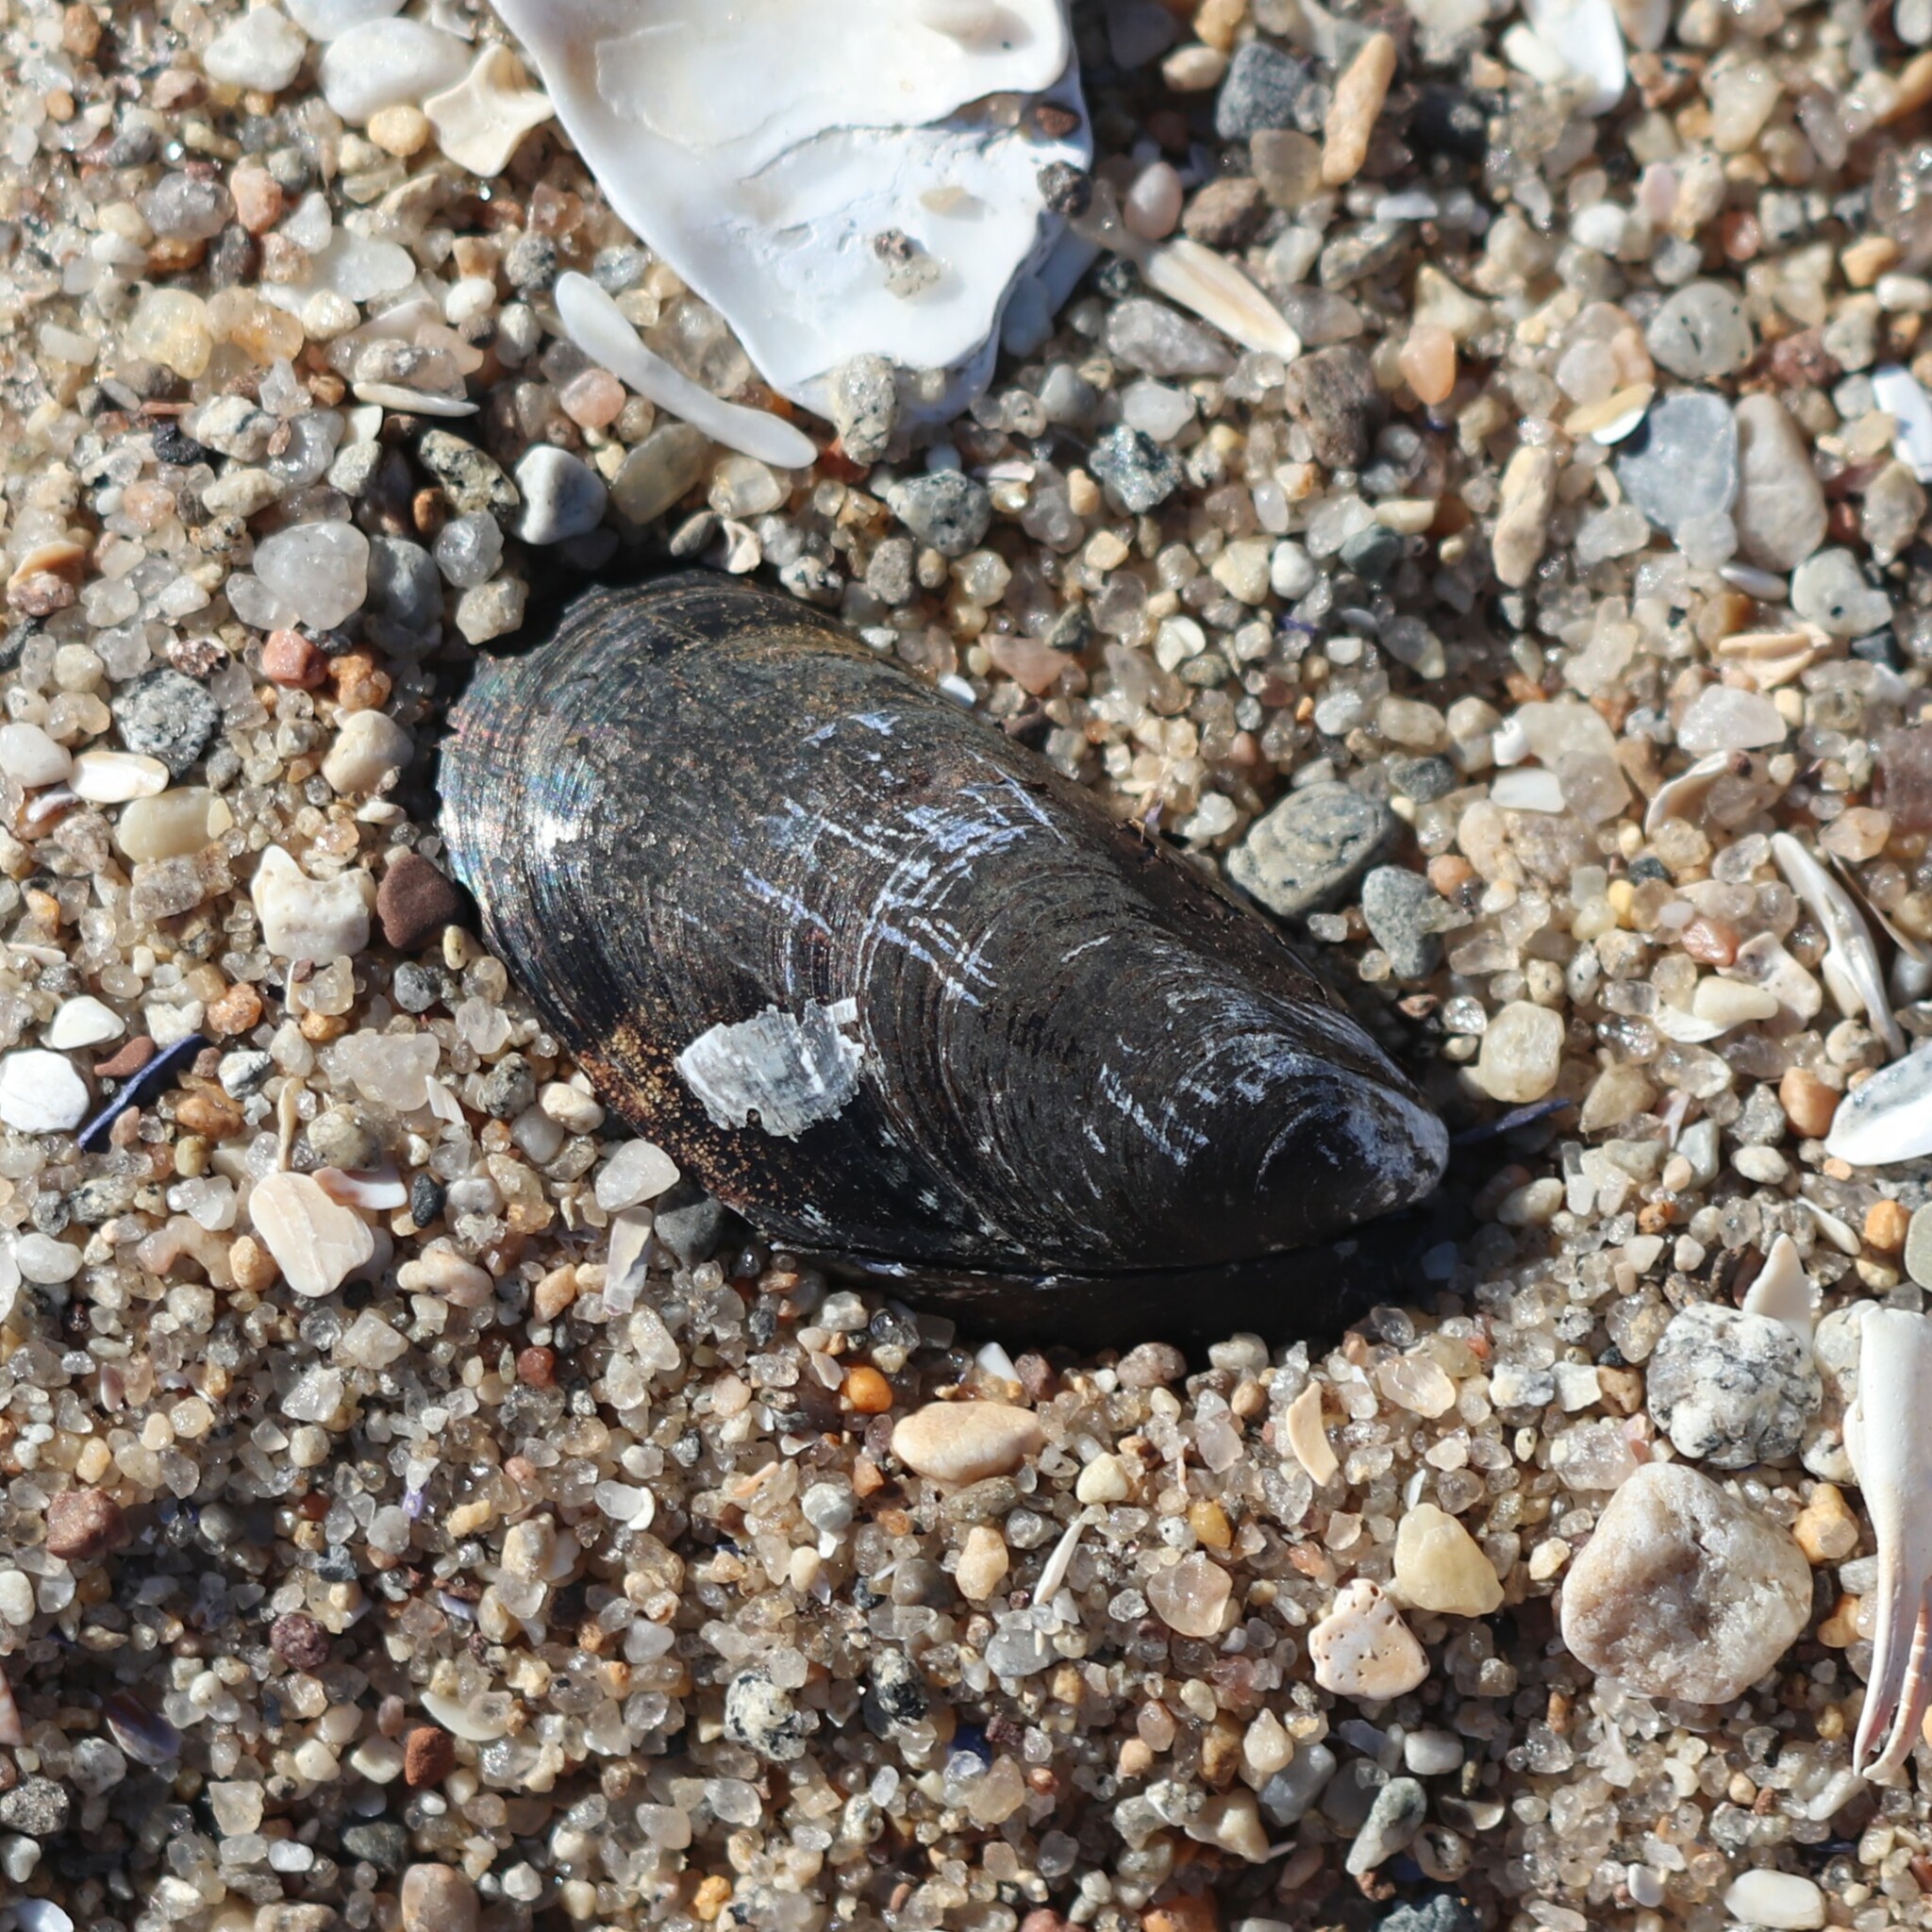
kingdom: Animalia
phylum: Mollusca
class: Bivalvia
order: Mytilida
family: Mytilidae
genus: Mytilus
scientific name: Mytilus edulis
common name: Blue mussel
